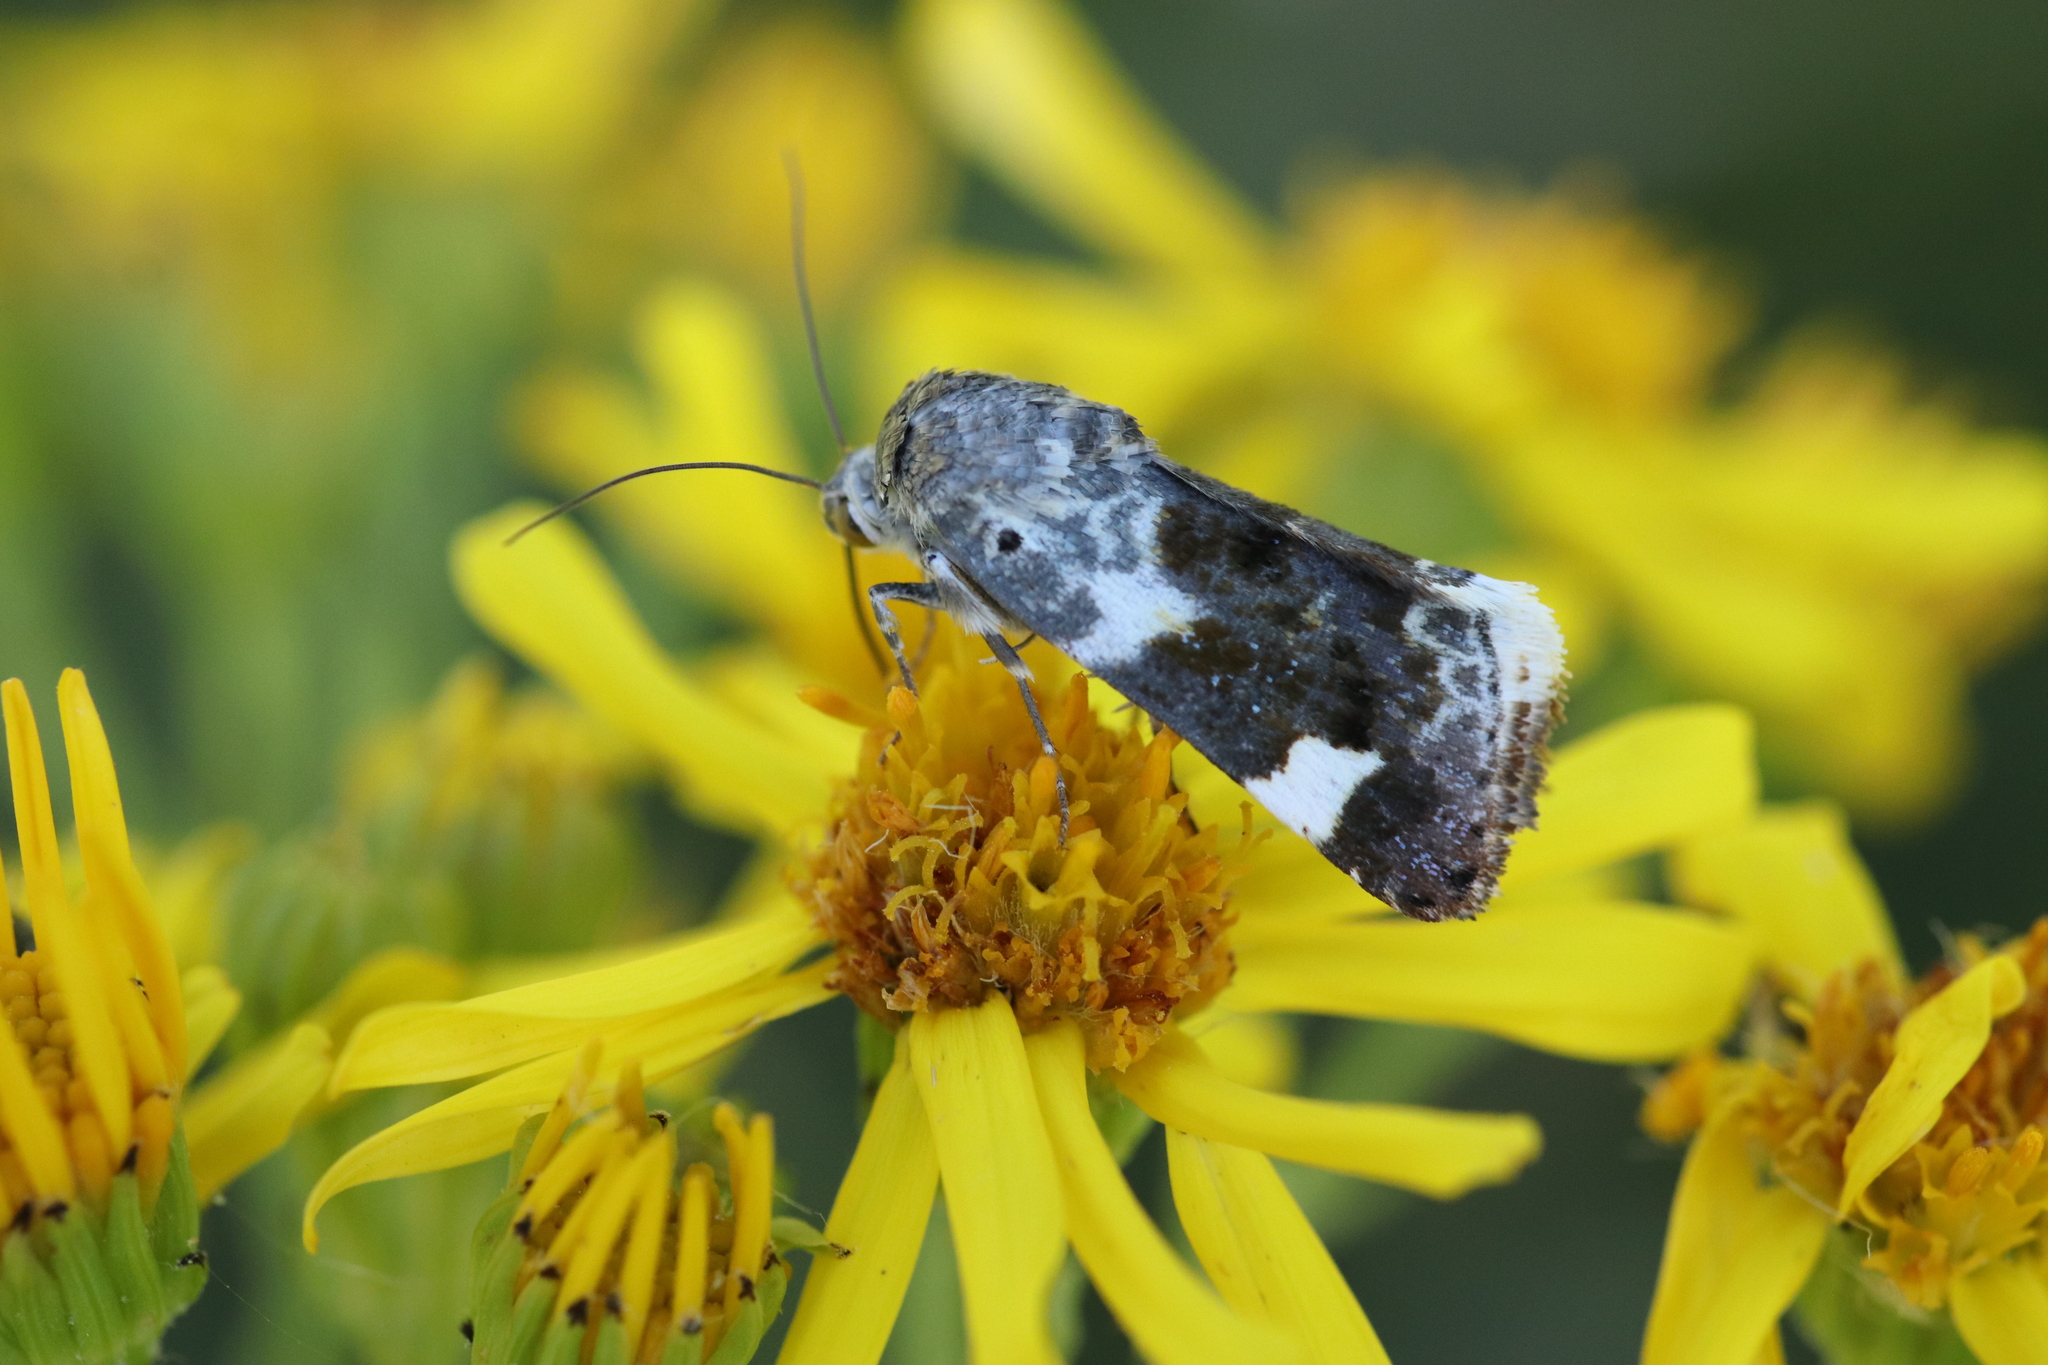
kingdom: Animalia
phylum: Arthropoda
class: Insecta
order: Lepidoptera
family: Noctuidae
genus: Acontia
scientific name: Acontia lucida
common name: Pale shoulder
